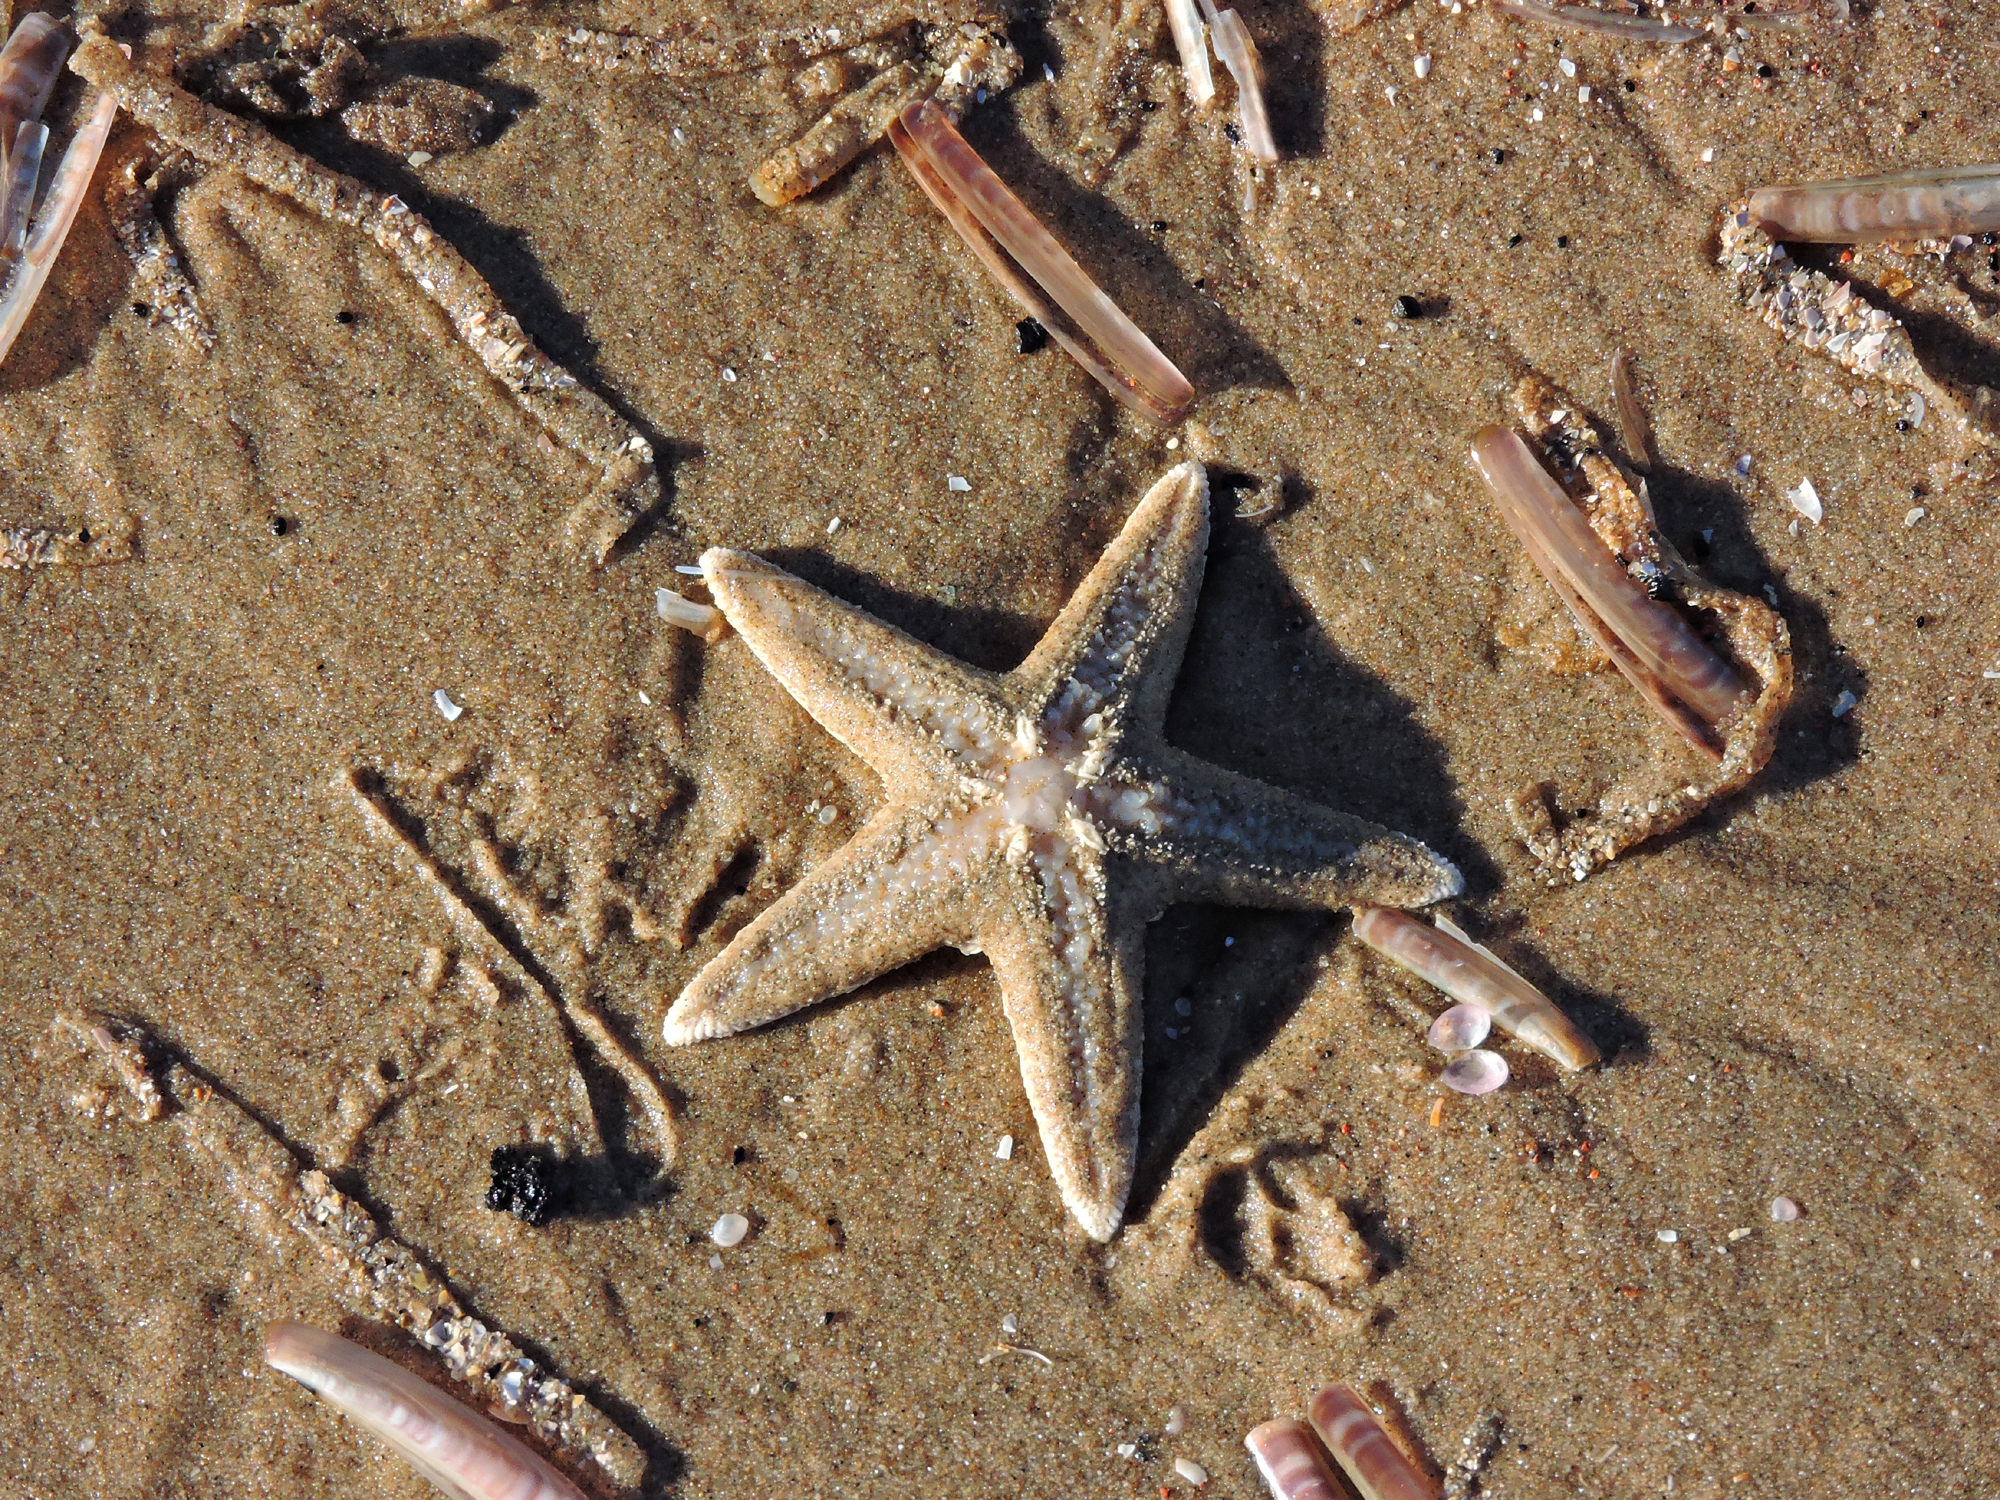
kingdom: Animalia
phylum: Echinodermata
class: Asteroidea
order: Forcipulatida
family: Asteriidae
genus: Asterias
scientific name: Asterias rubens
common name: Common starfish
